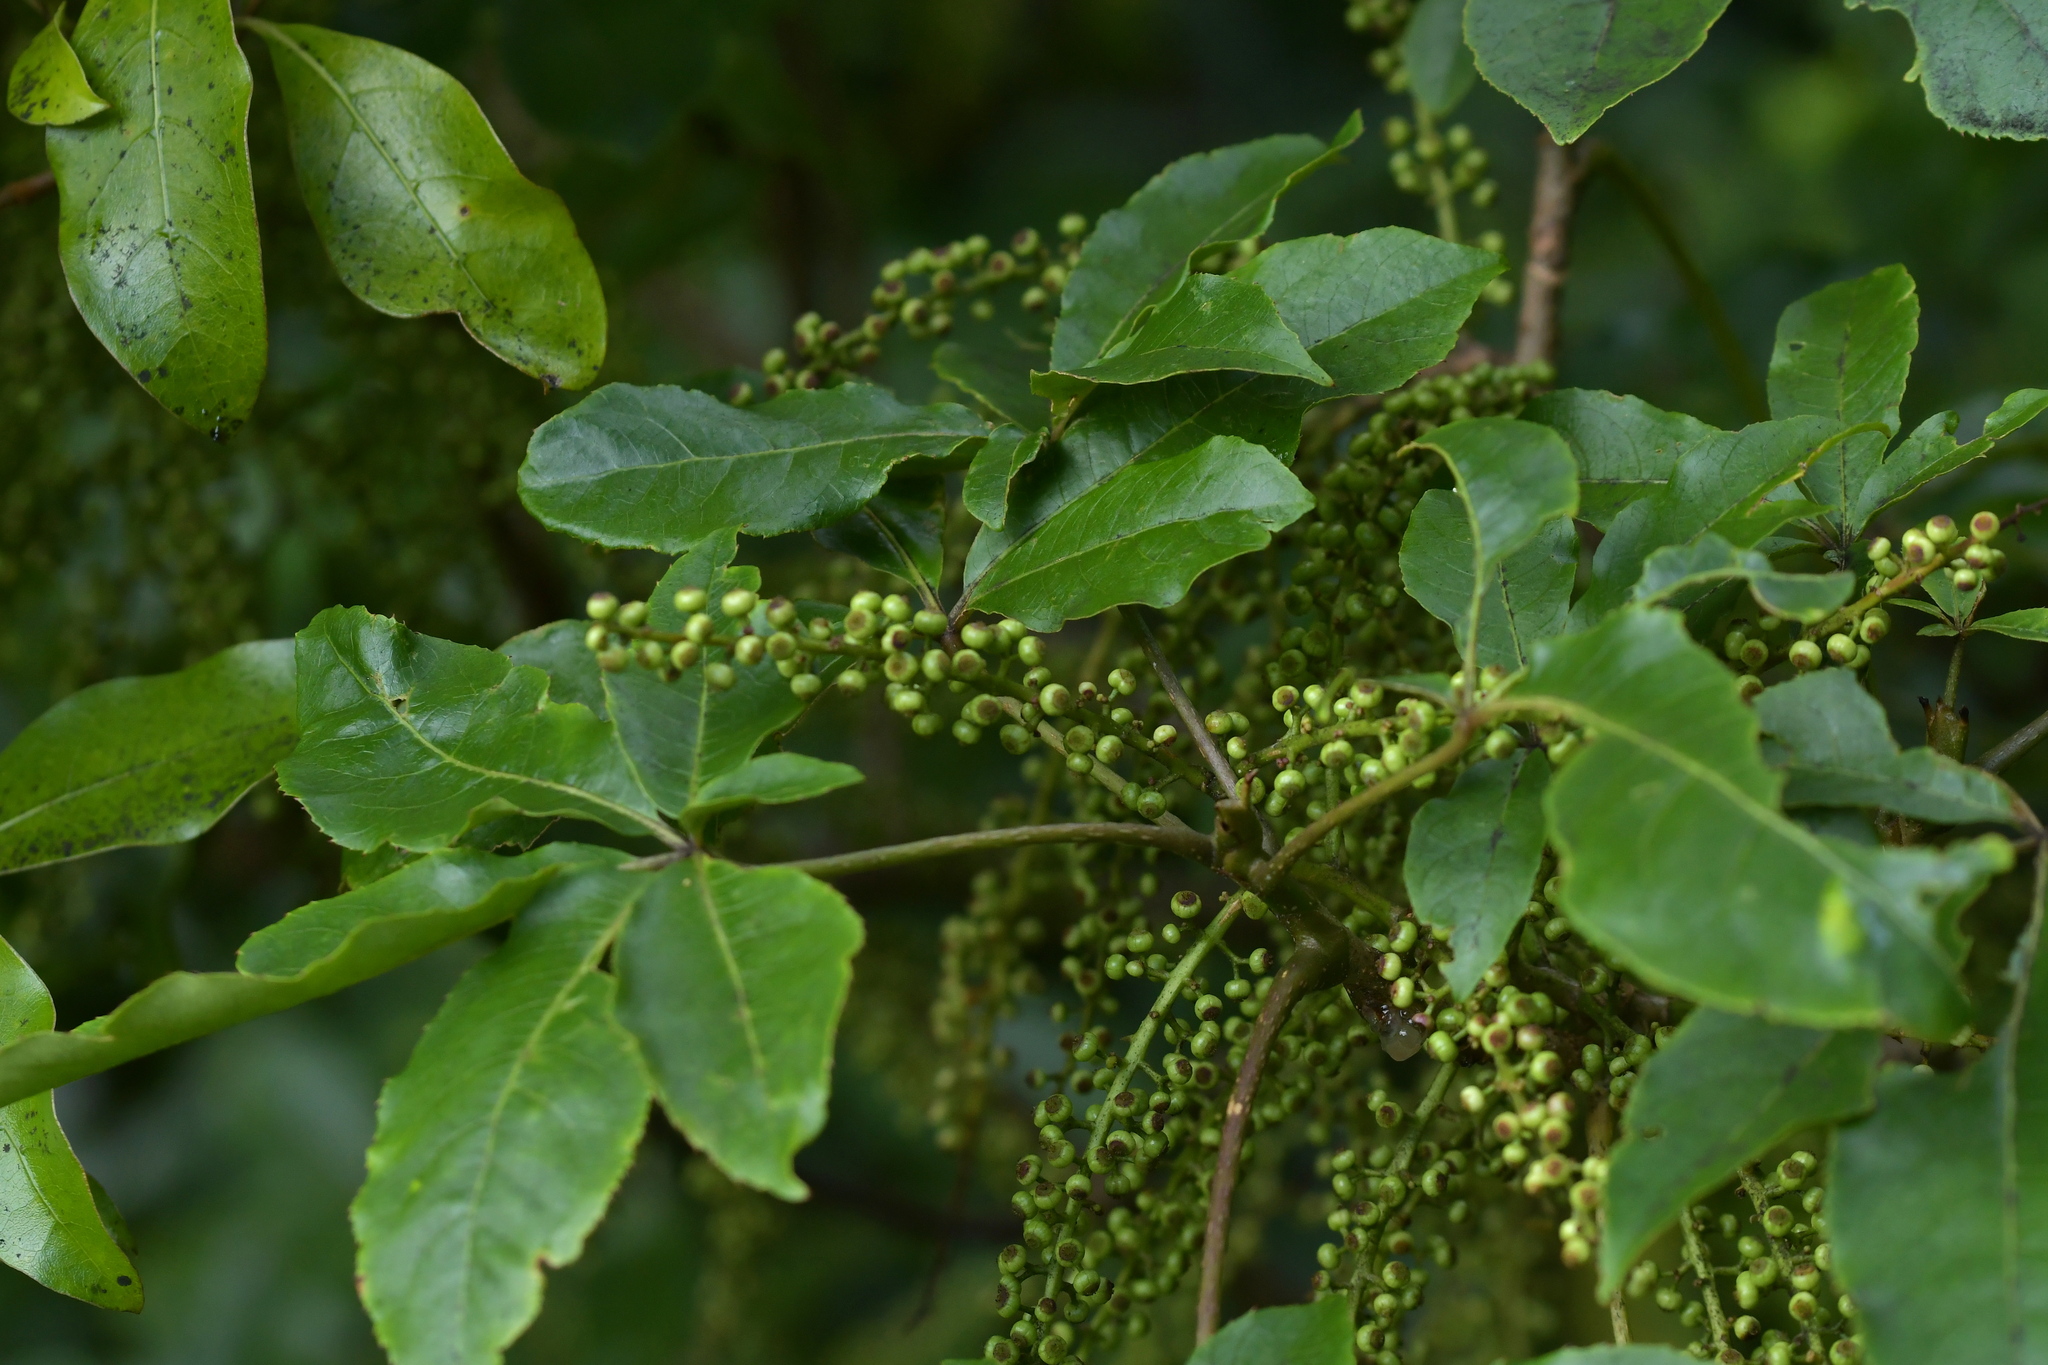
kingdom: Plantae
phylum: Tracheophyta
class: Magnoliopsida
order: Apiales
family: Araliaceae
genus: Schefflera
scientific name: Schefflera digitata
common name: Pate
